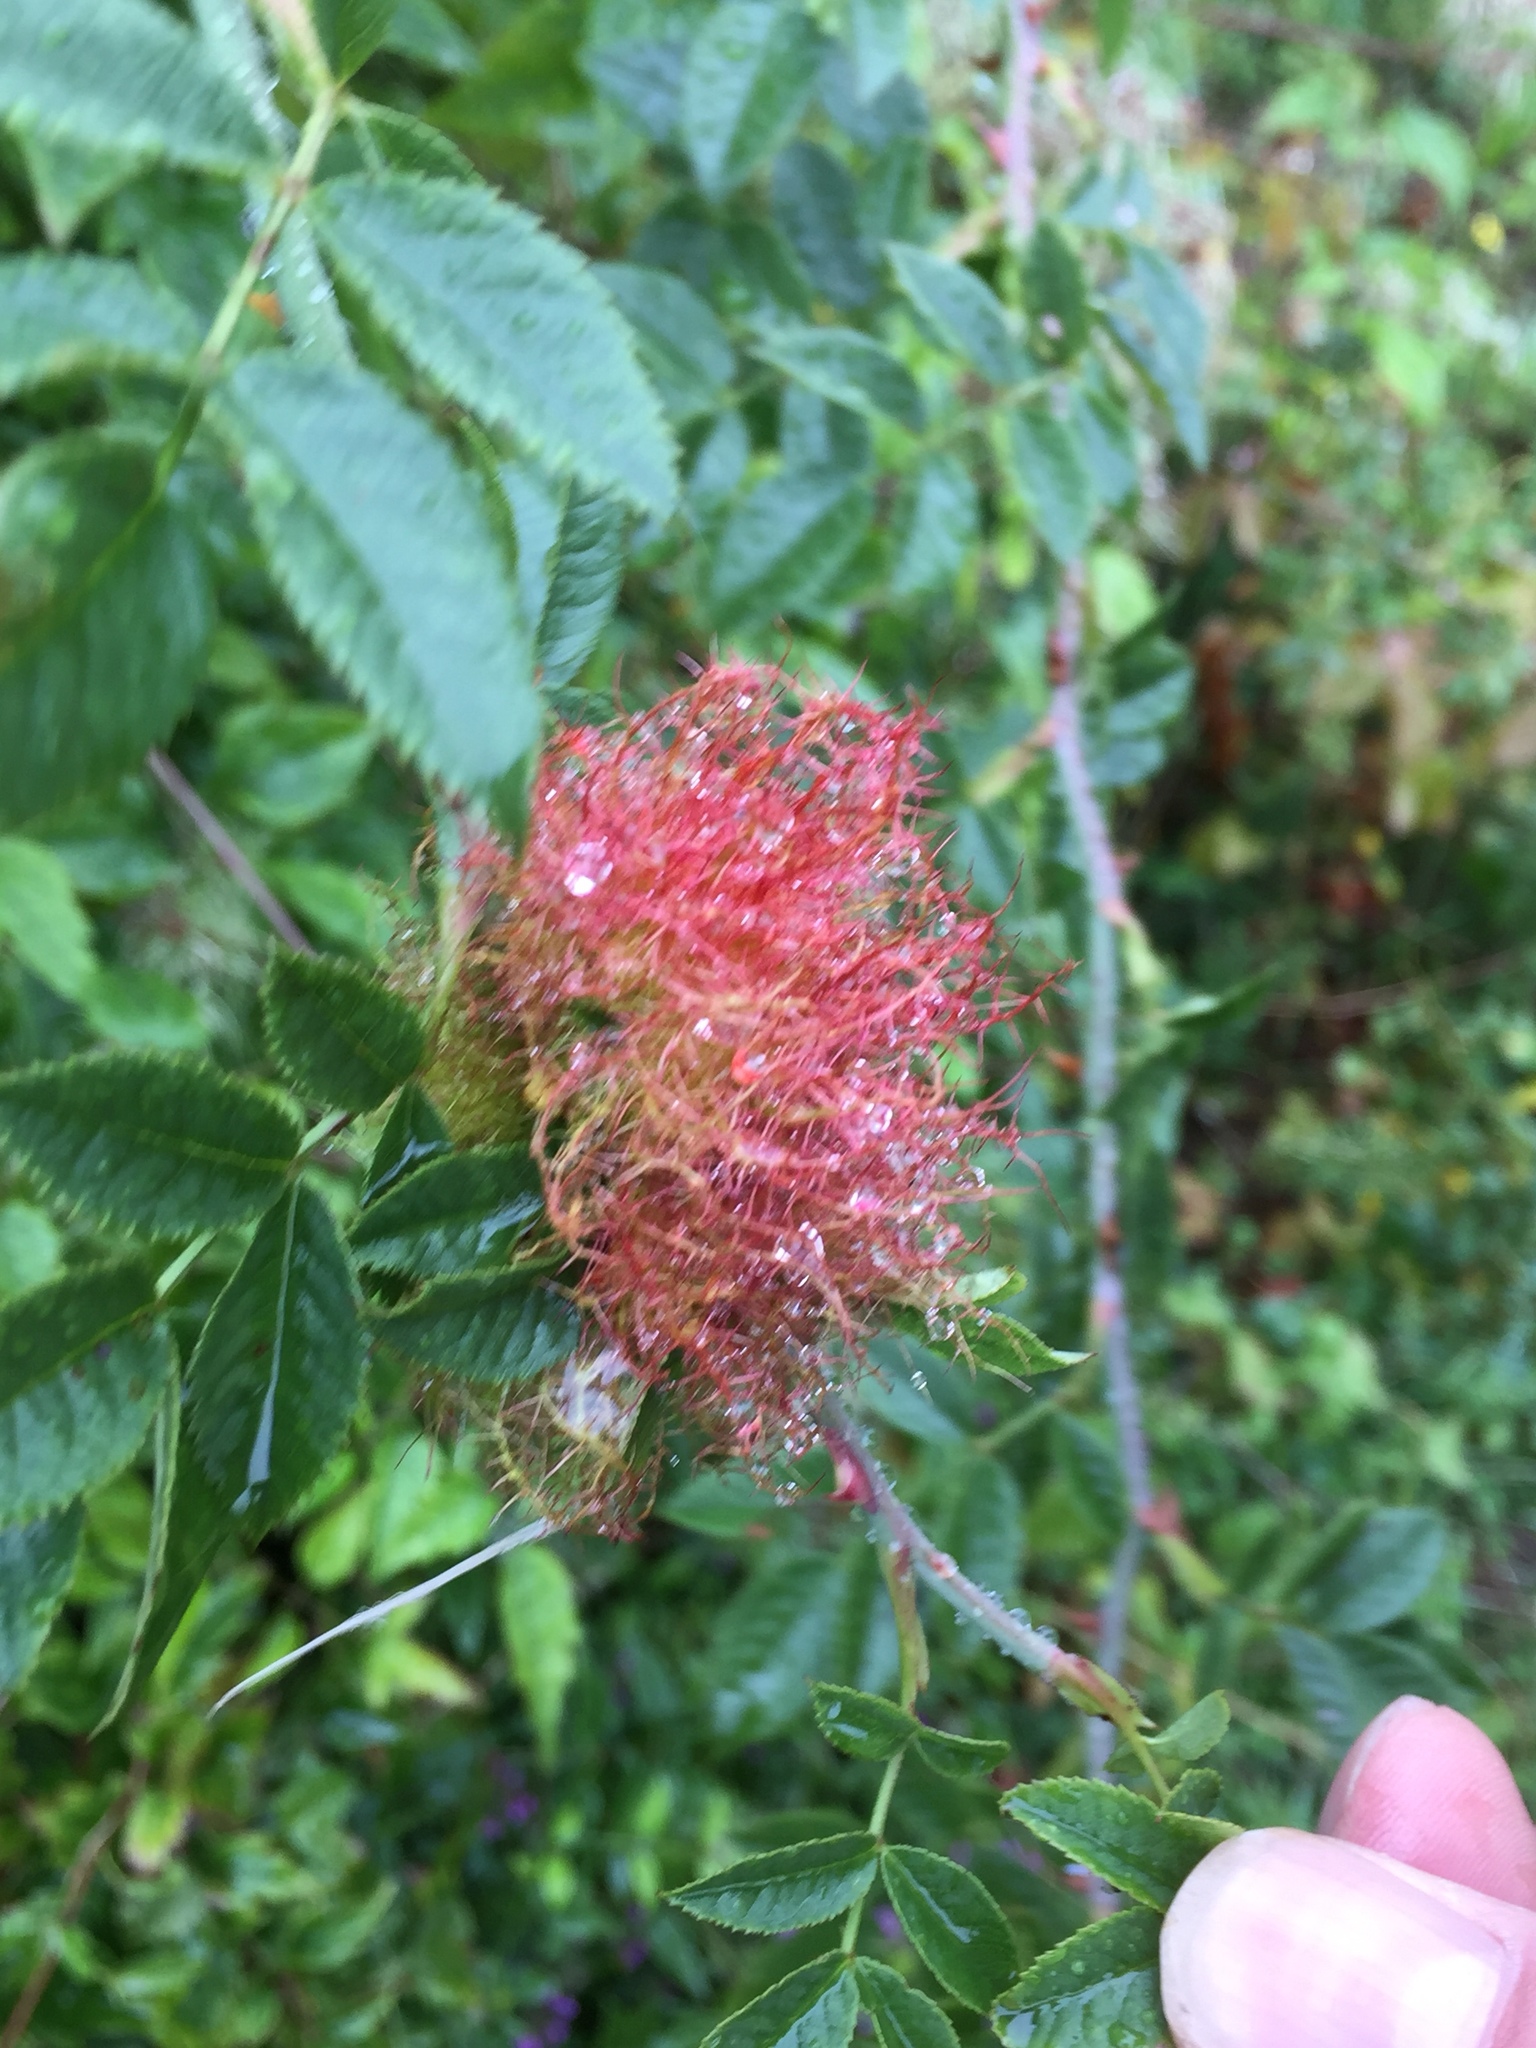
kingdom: Animalia
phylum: Arthropoda
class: Insecta
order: Hymenoptera
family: Cynipidae
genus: Diplolepis
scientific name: Diplolepis rosae
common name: Bedeguar gall
